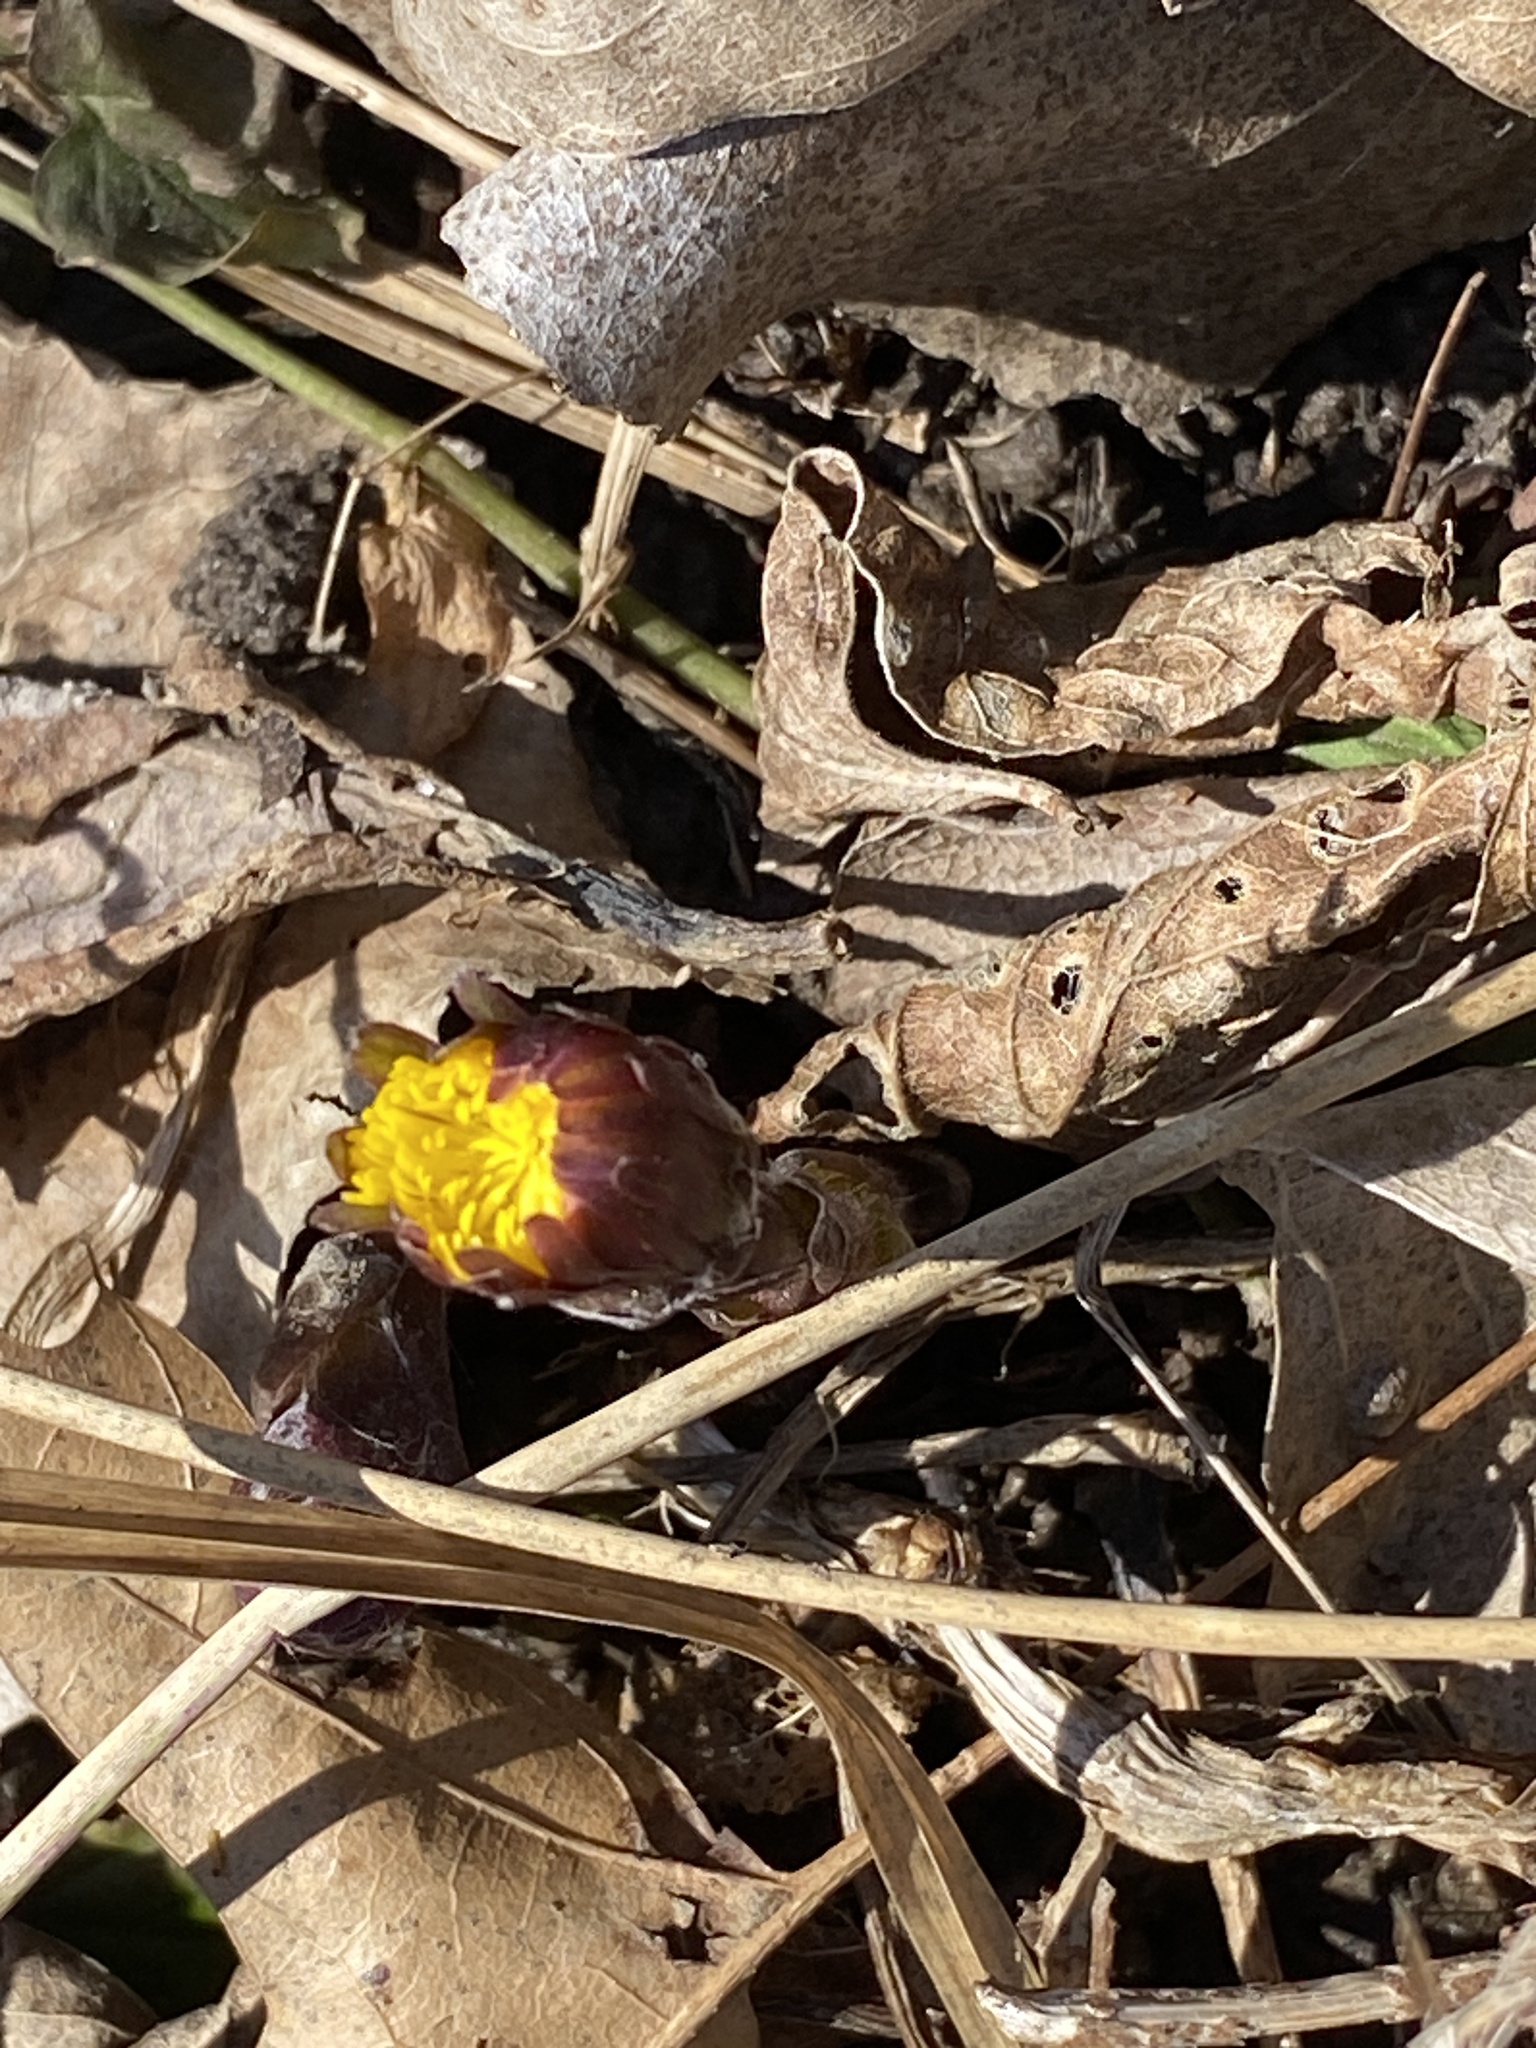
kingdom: Plantae
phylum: Tracheophyta
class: Magnoliopsida
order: Asterales
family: Asteraceae
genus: Tussilago
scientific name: Tussilago farfara
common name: Coltsfoot
